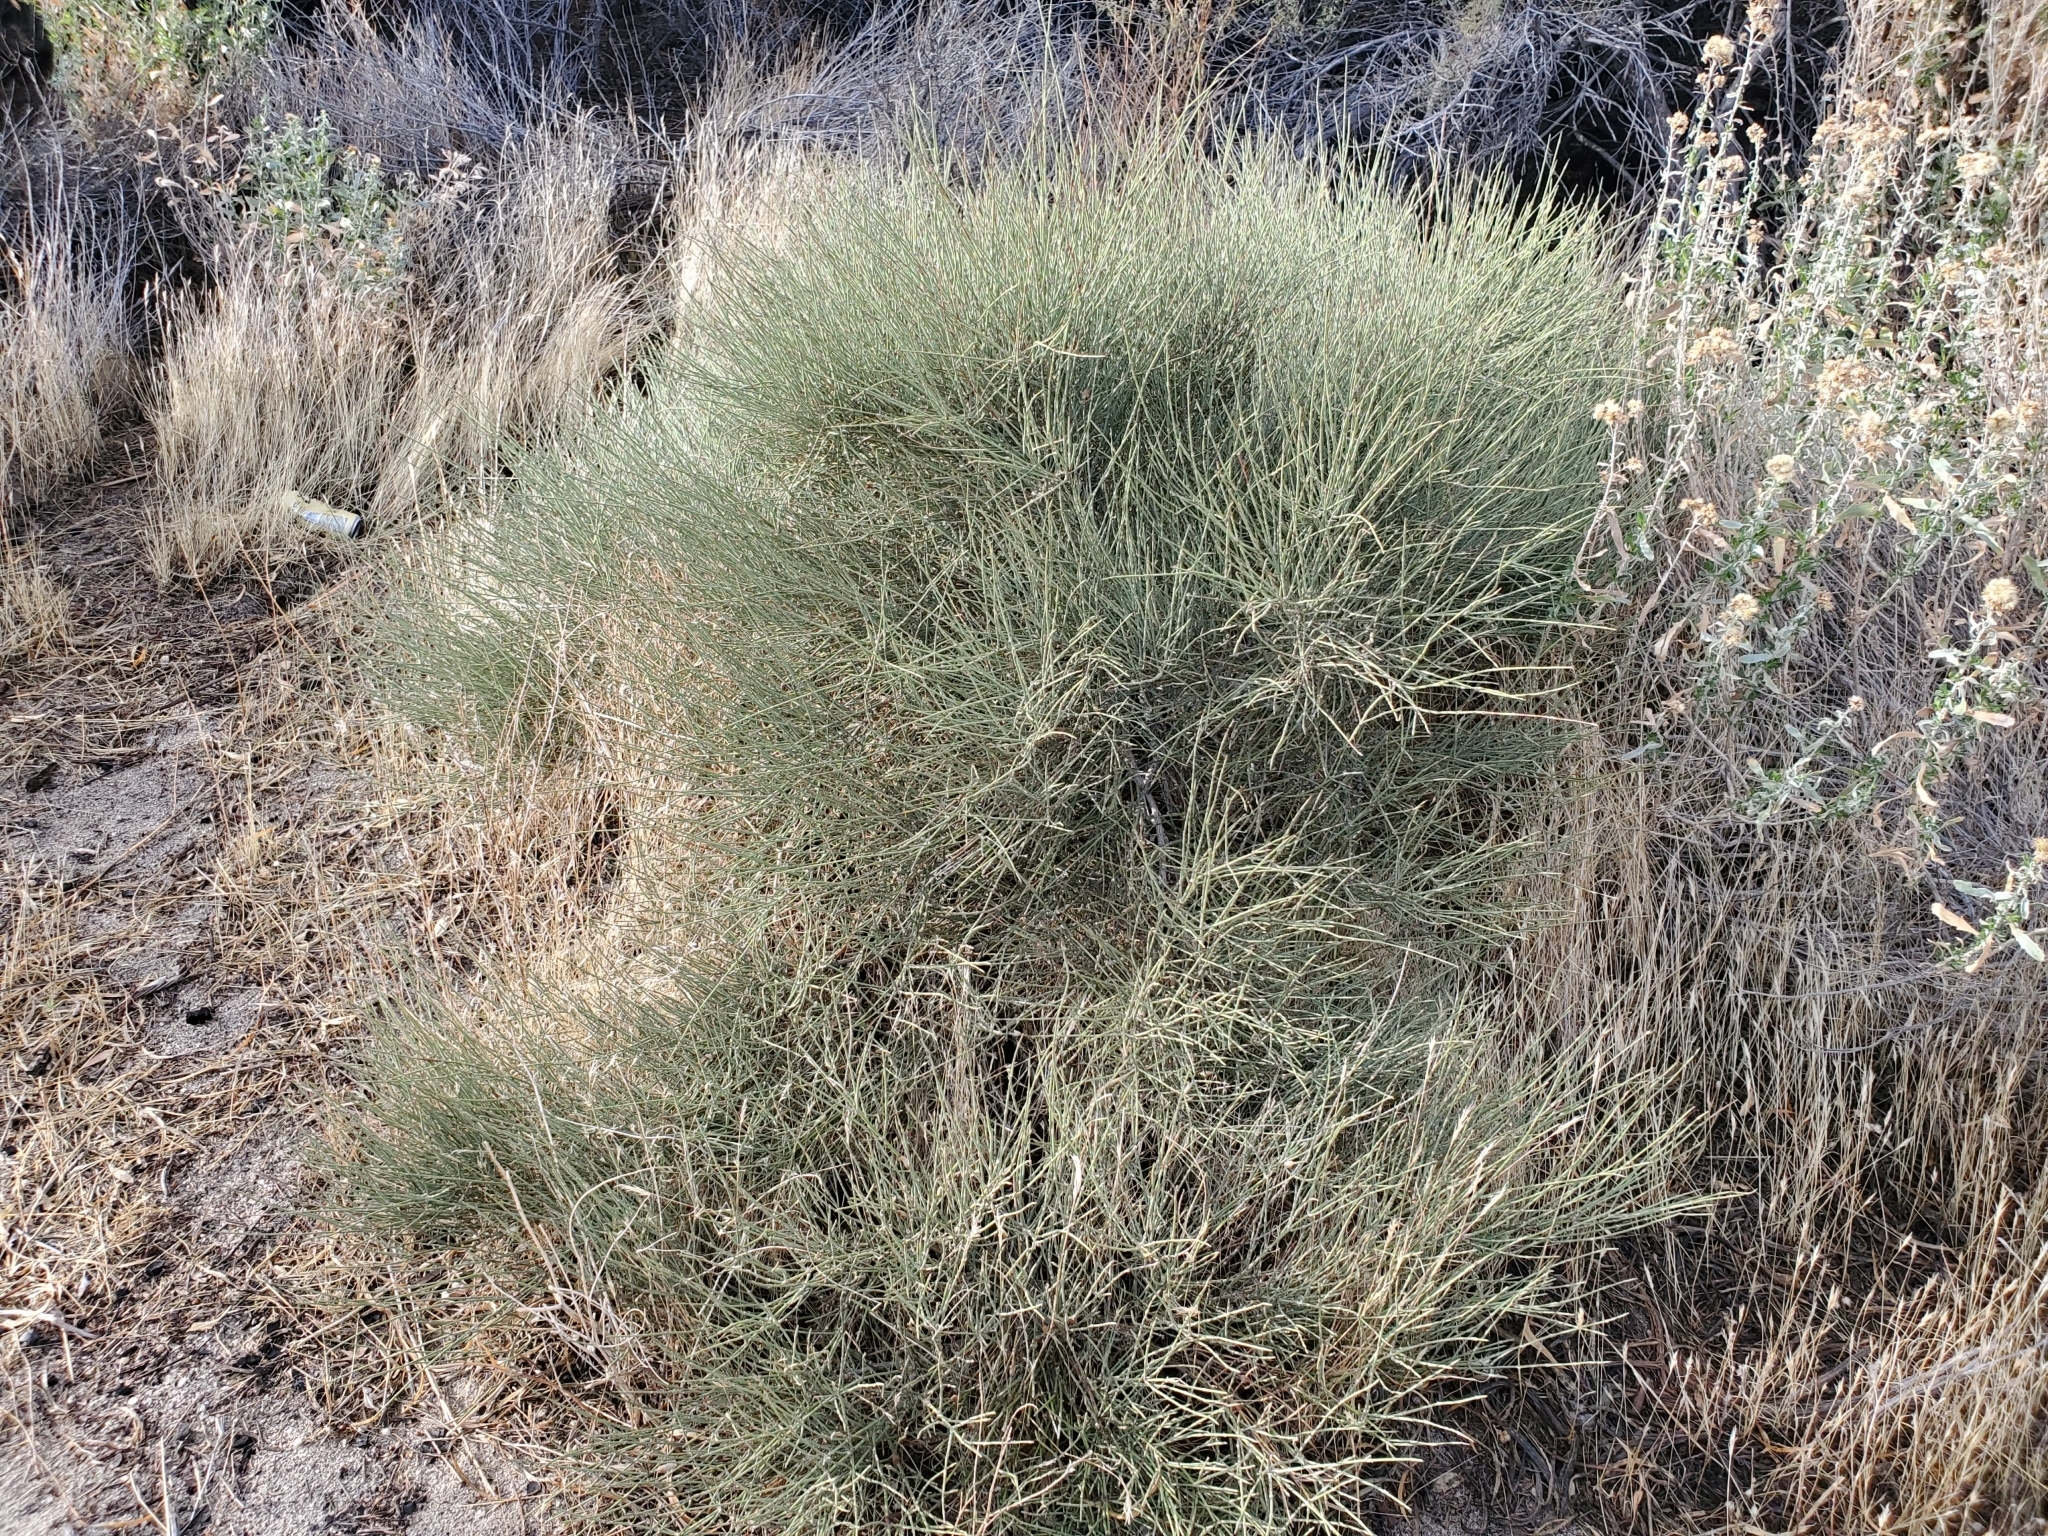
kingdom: Animalia
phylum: Arthropoda
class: Insecta
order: Diptera
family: Cecidomyiidae
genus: Lasioptera
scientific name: Lasioptera ephedrae
